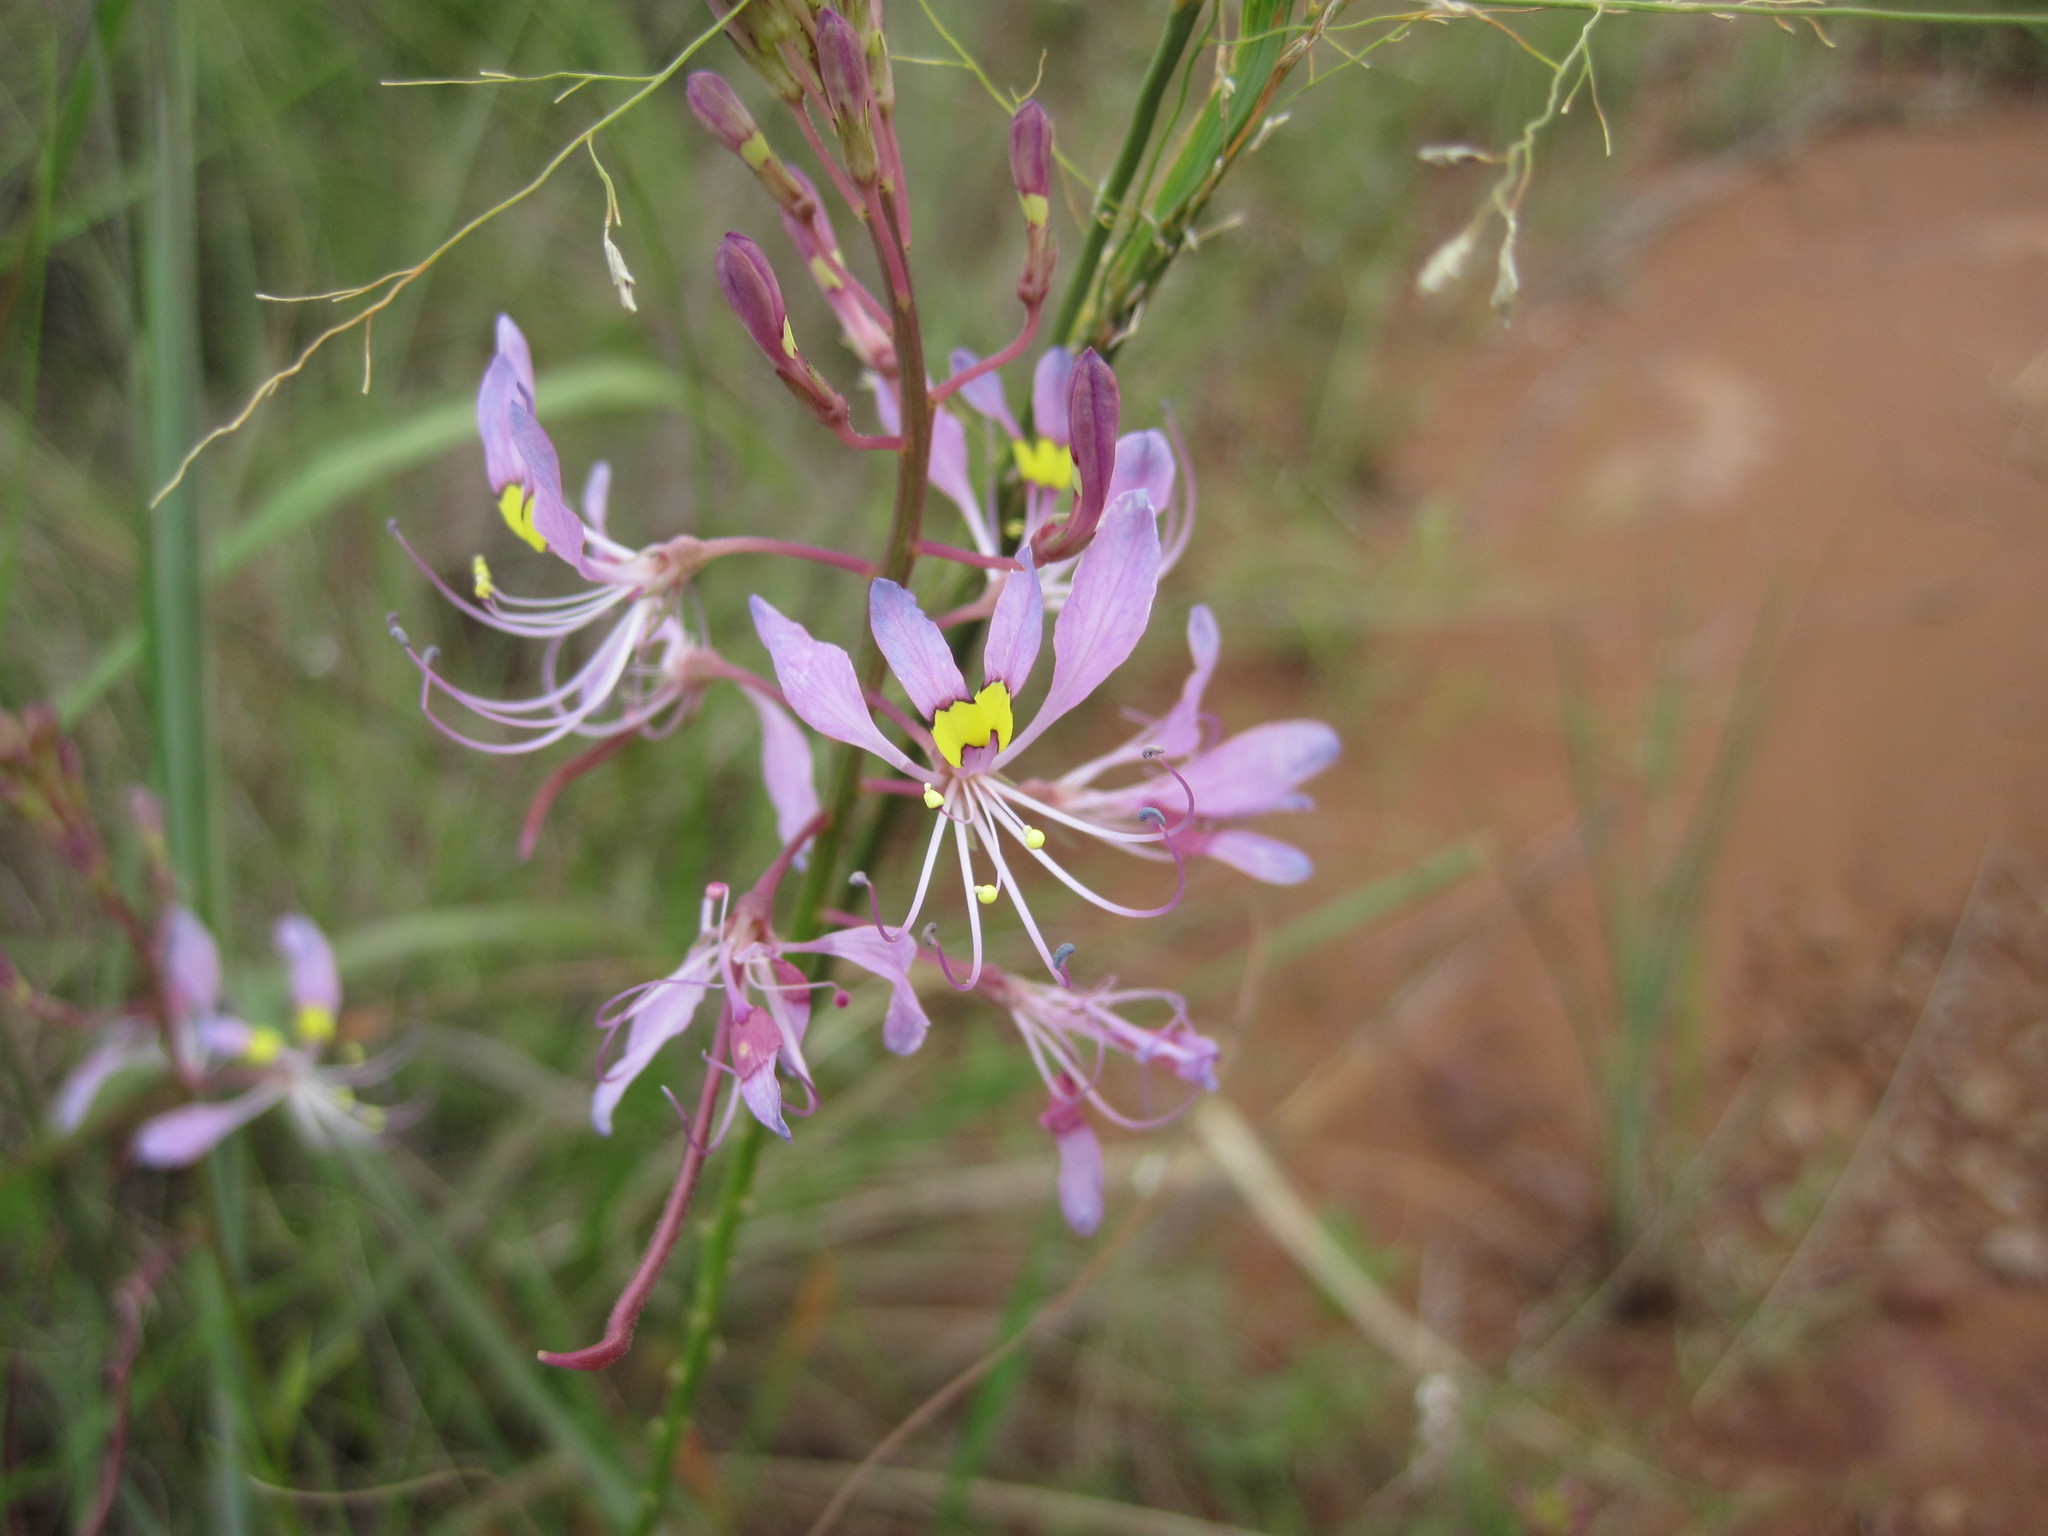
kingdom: Plantae
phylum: Tracheophyta
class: Magnoliopsida
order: Brassicales
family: Cleomaceae
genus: Sieruela
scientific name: Sieruela maculata
